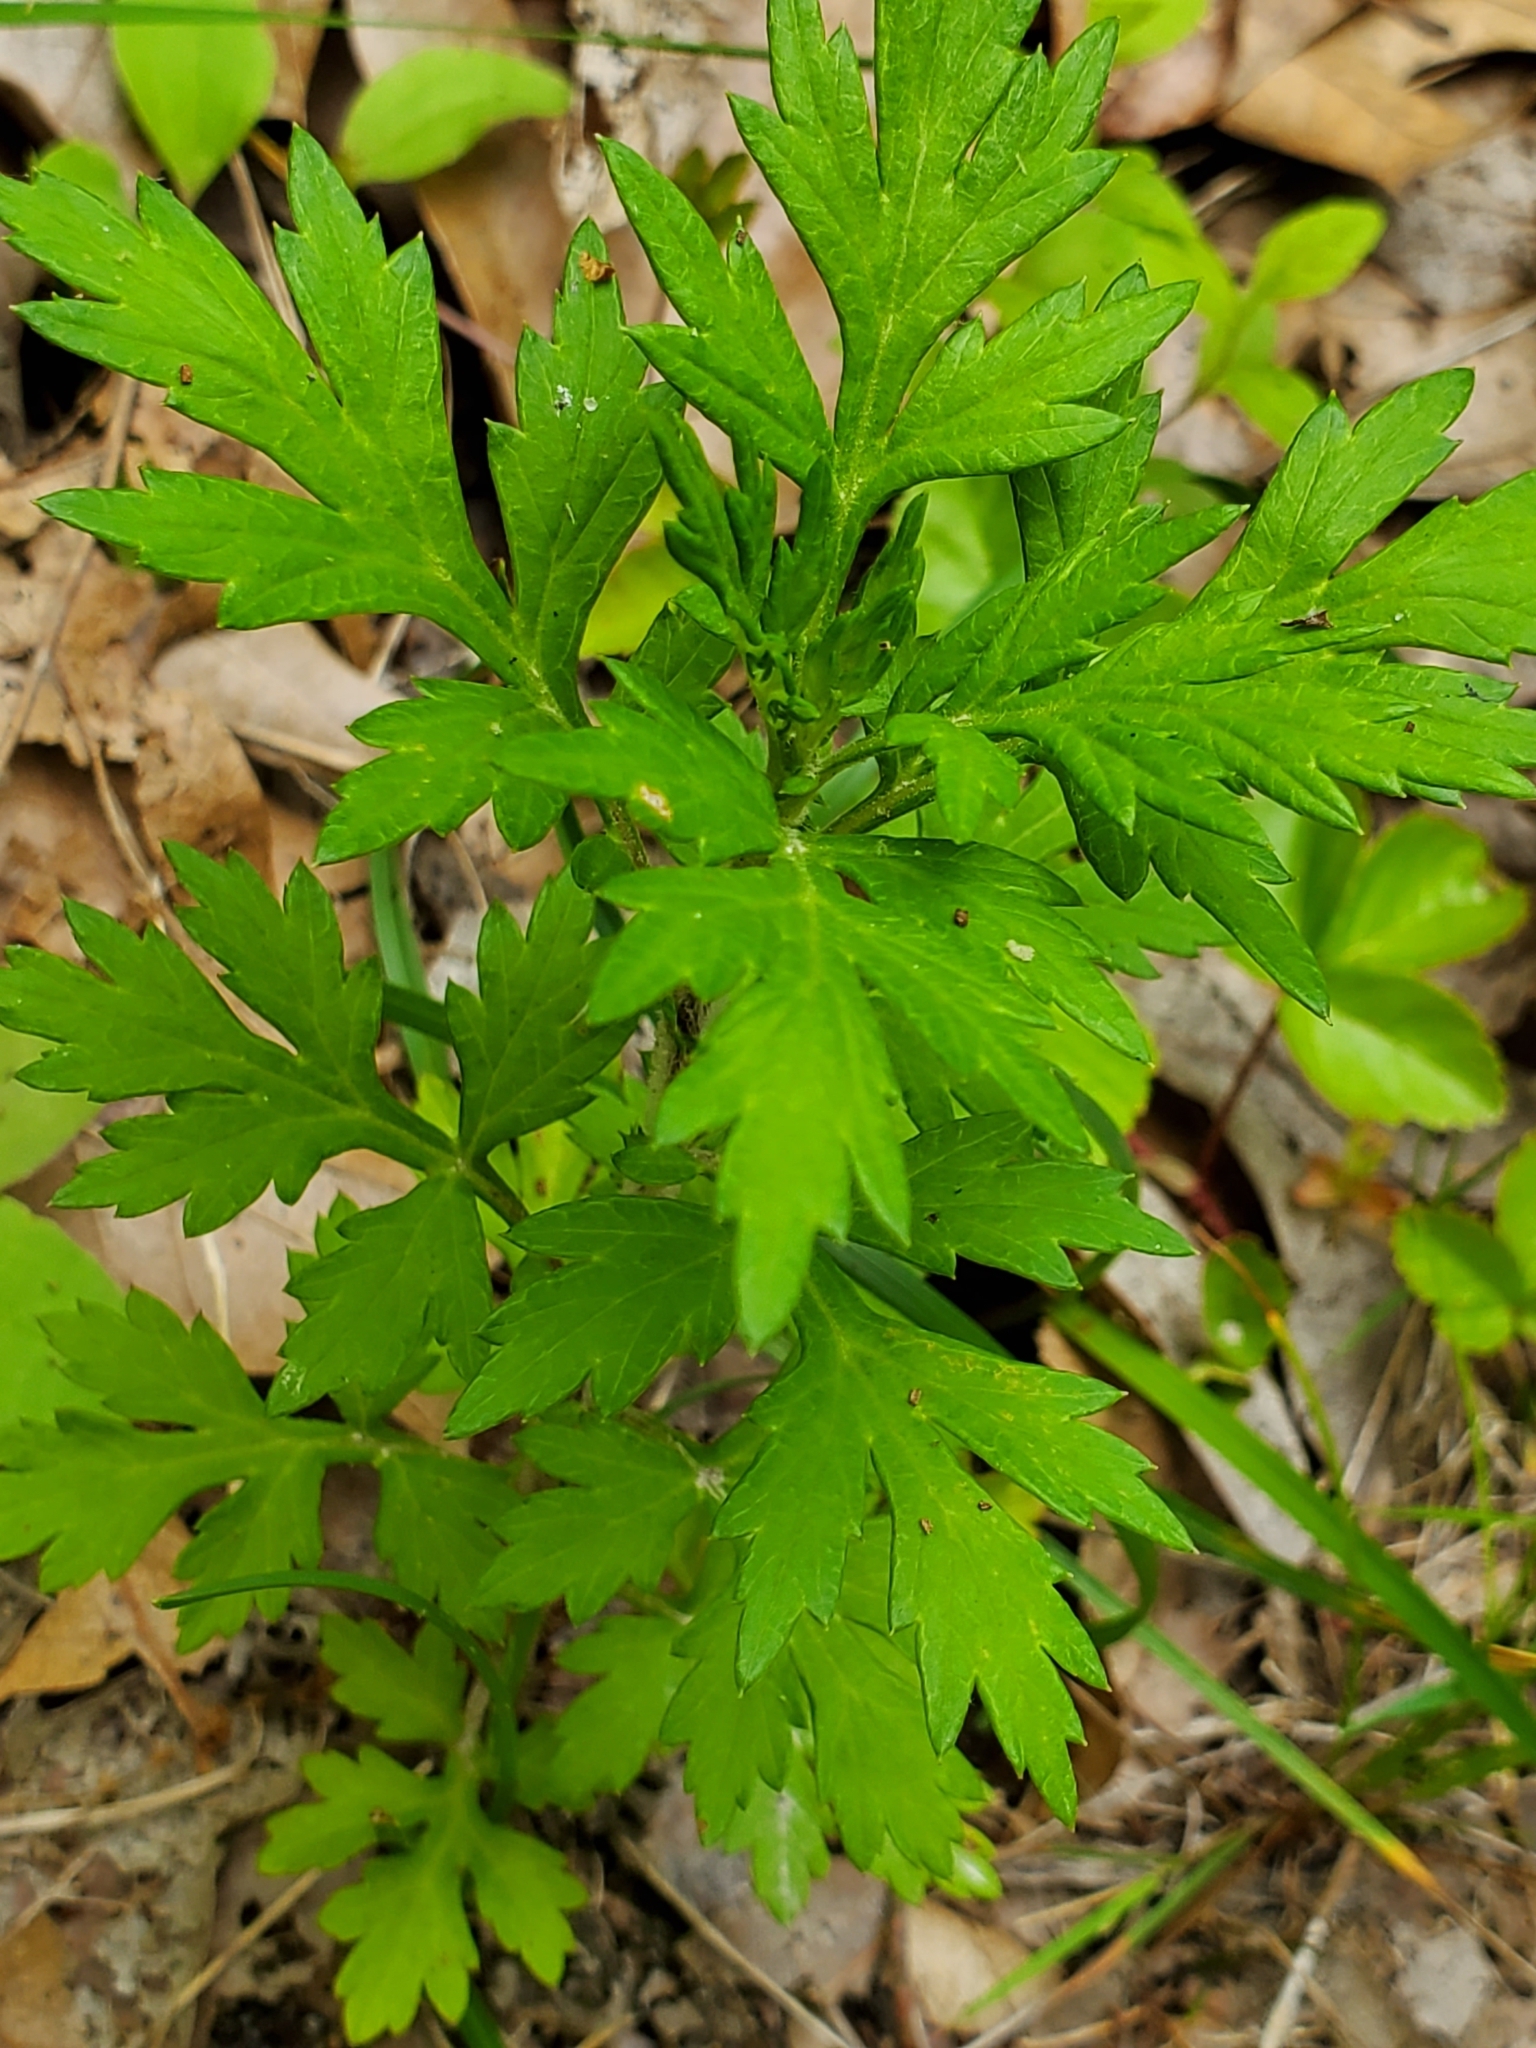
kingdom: Plantae
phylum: Tracheophyta
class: Magnoliopsida
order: Asterales
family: Asteraceae
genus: Artemisia
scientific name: Artemisia vulgaris
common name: Mugwort
